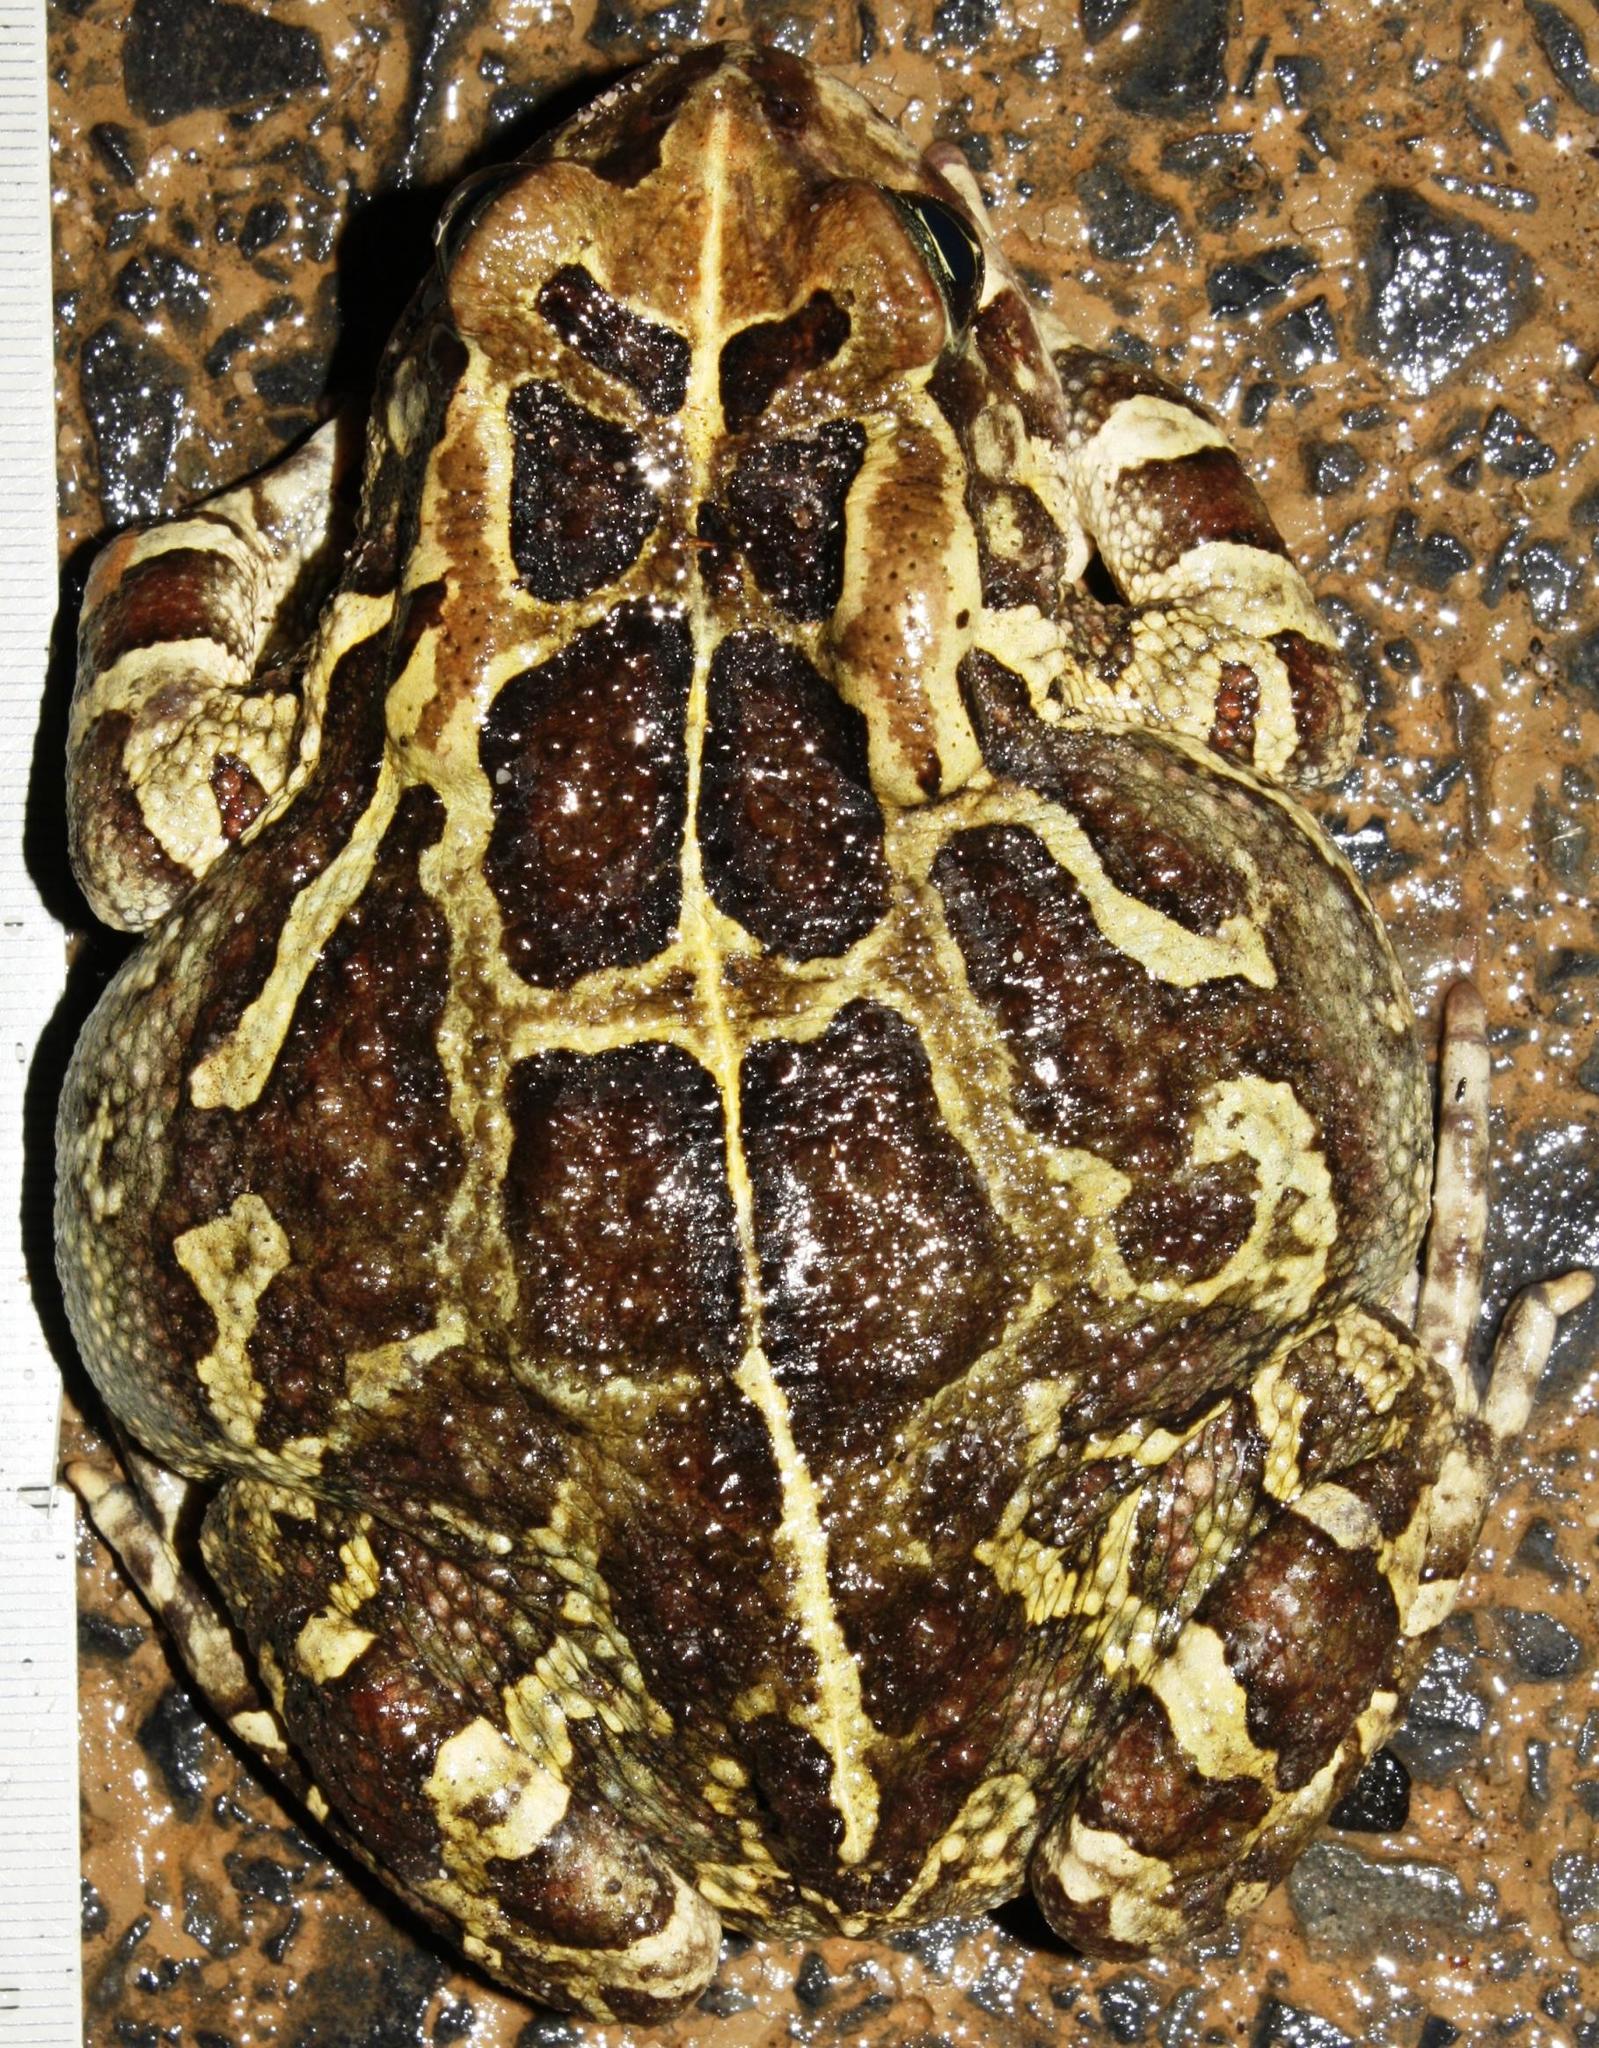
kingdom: Animalia
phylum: Chordata
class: Amphibia
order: Anura
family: Bufonidae
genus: Sclerophrys
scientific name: Sclerophrys pantherina
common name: Panther toad
